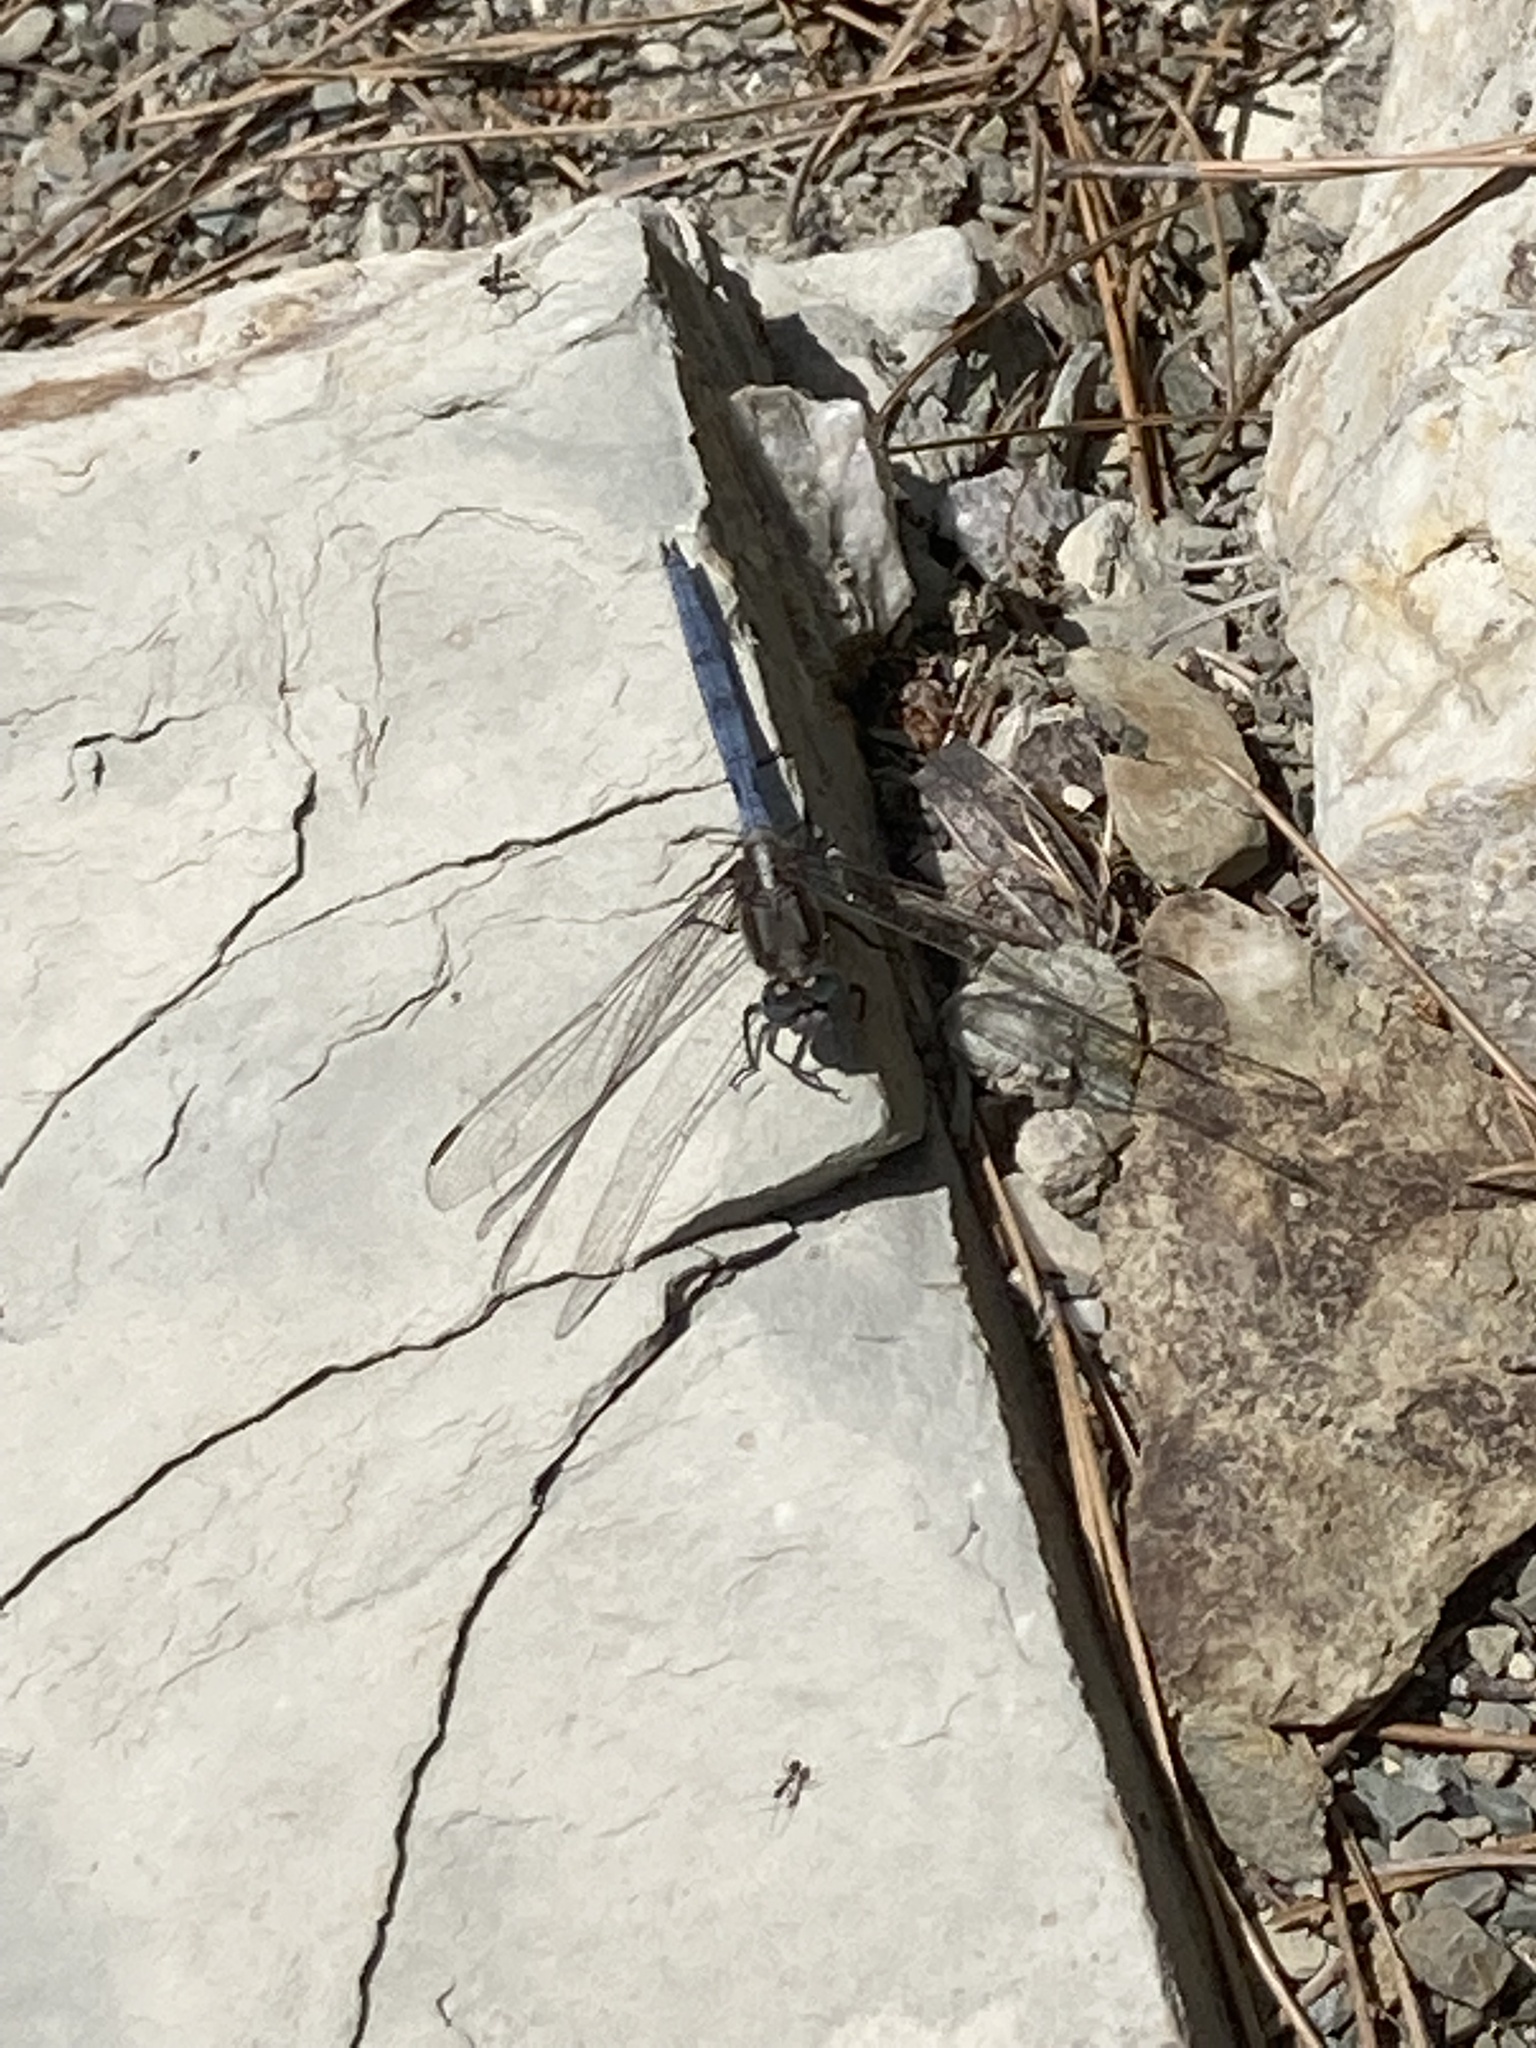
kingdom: Animalia
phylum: Arthropoda
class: Insecta
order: Odonata
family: Libellulidae
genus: Orthetrum
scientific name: Orthetrum chrysostigma
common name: Epaulet skimmer
